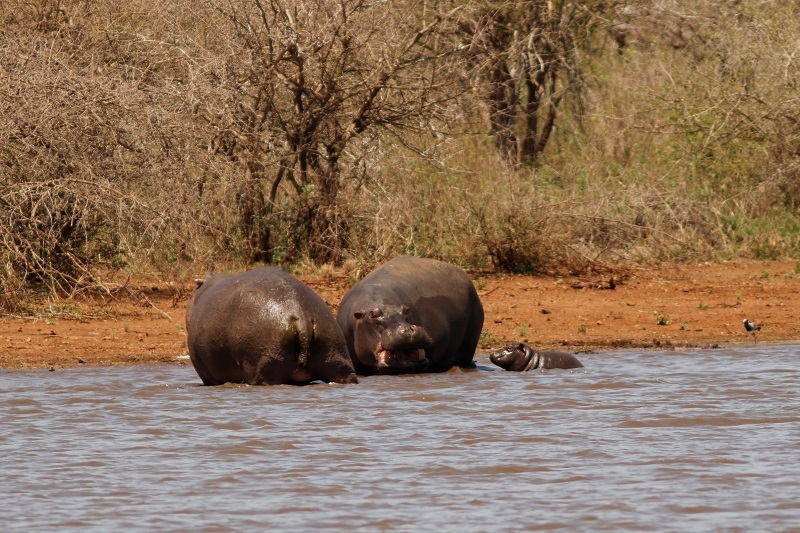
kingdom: Animalia
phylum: Chordata
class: Mammalia
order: Artiodactyla
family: Hippopotamidae
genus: Hippopotamus
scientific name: Hippopotamus amphibius
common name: Common hippopotamus
